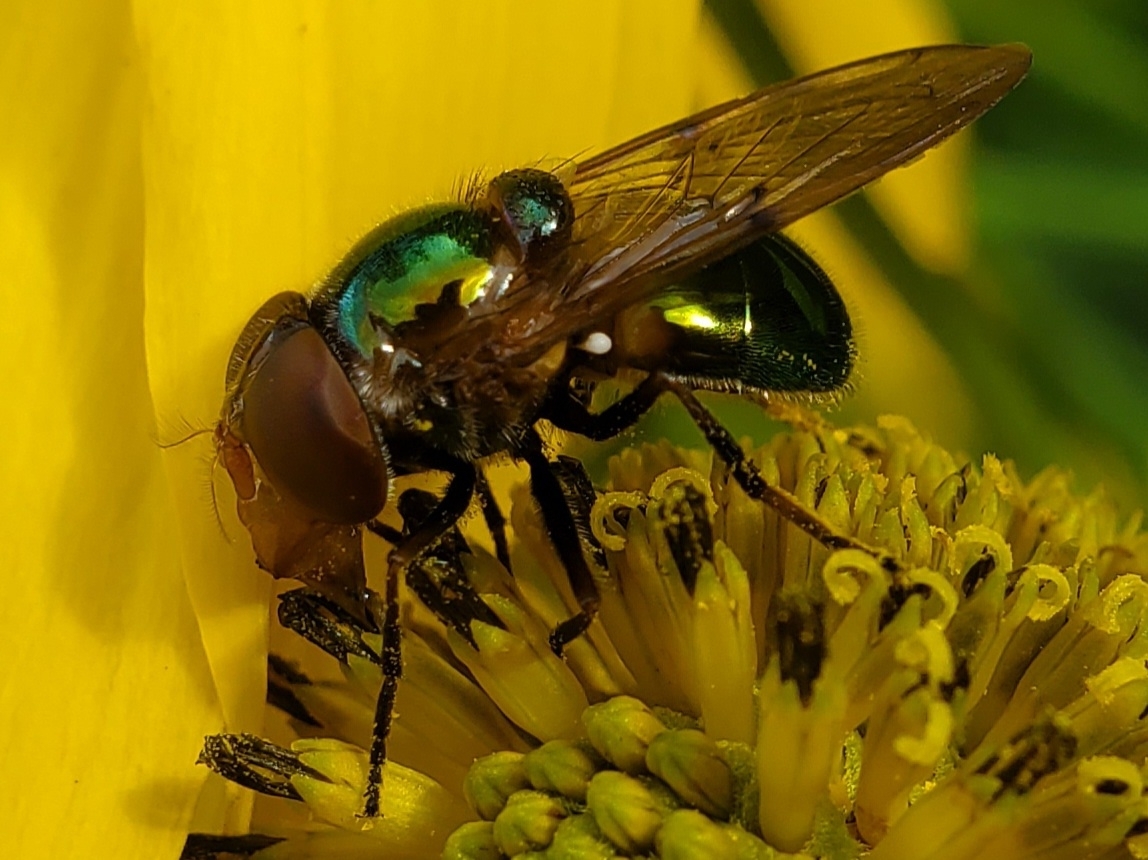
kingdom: Animalia
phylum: Arthropoda
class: Insecta
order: Diptera
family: Syrphidae
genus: Copestylum
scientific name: Copestylum vesicularium
